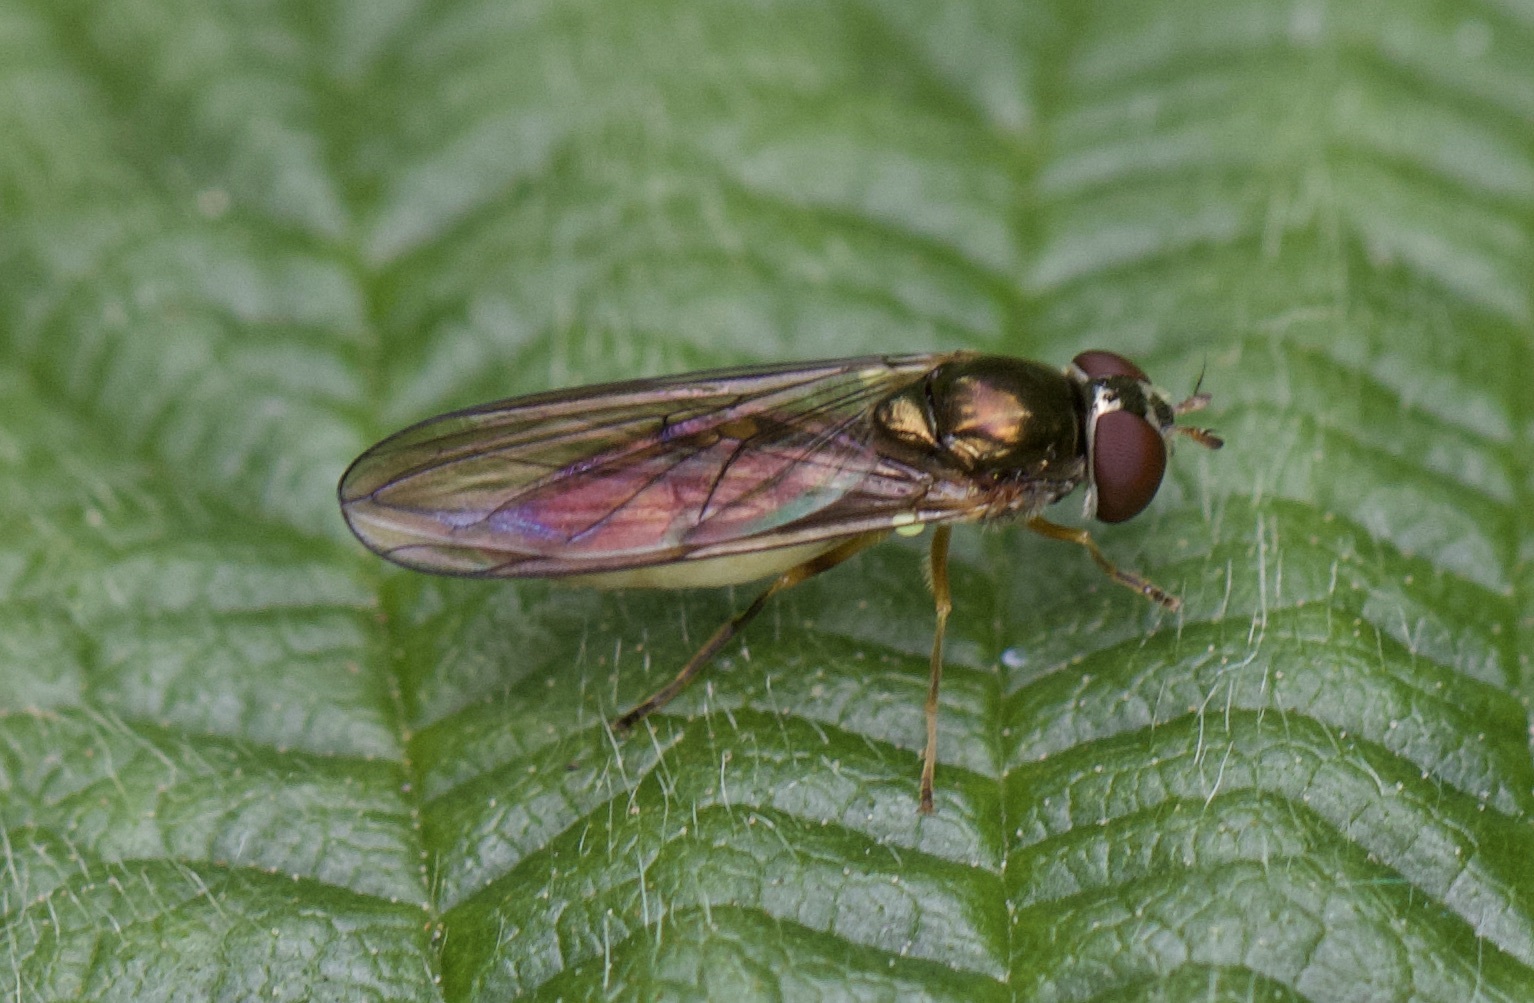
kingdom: Animalia
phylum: Arthropoda
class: Insecta
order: Diptera
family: Syrphidae
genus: Melanostoma
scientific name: Melanostoma scalare
